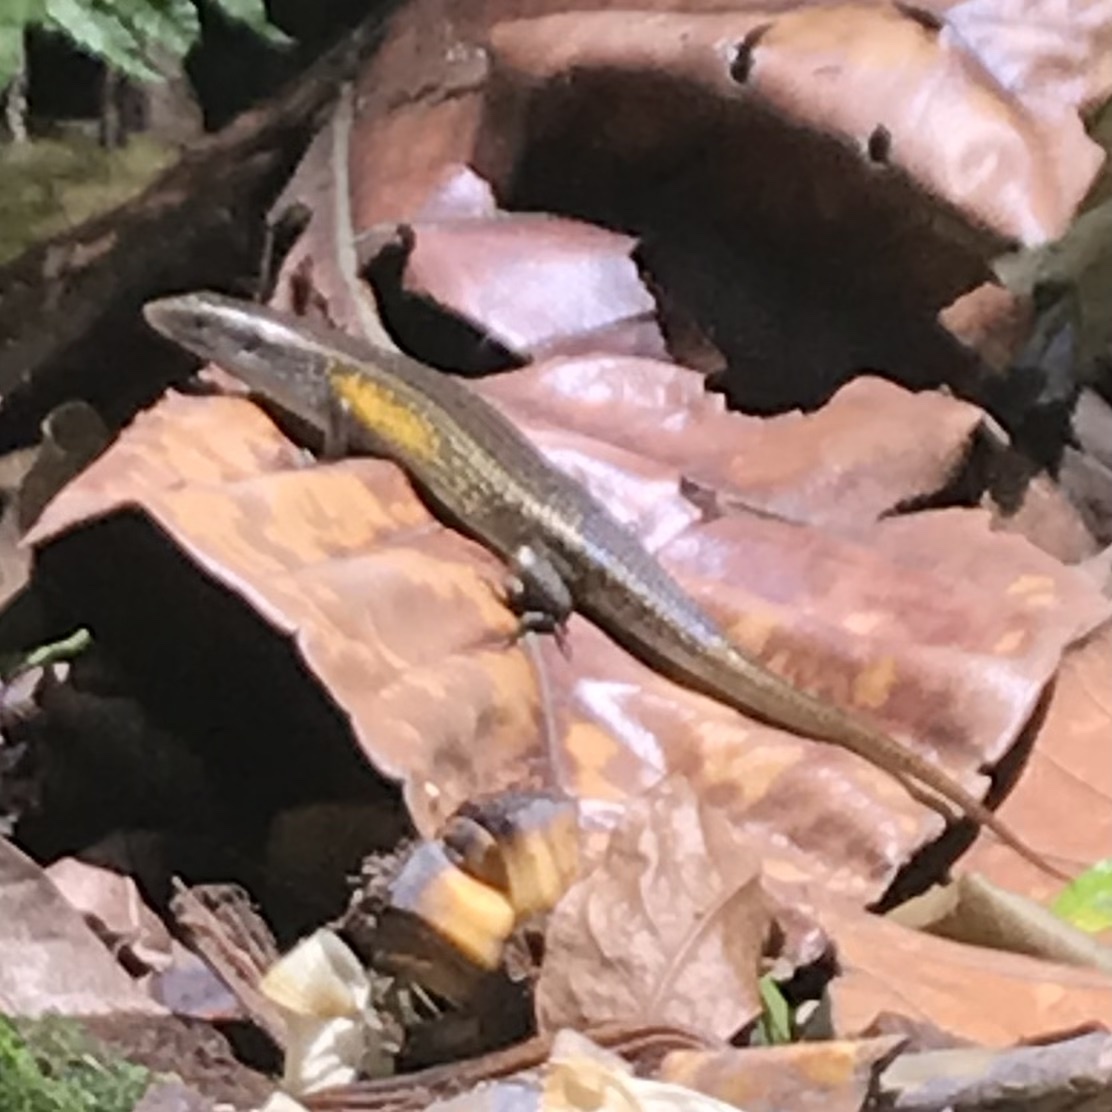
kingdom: Animalia
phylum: Chordata
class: Squamata
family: Scincidae
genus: Eutropis
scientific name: Eutropis multifasciata
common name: Common mabuya
